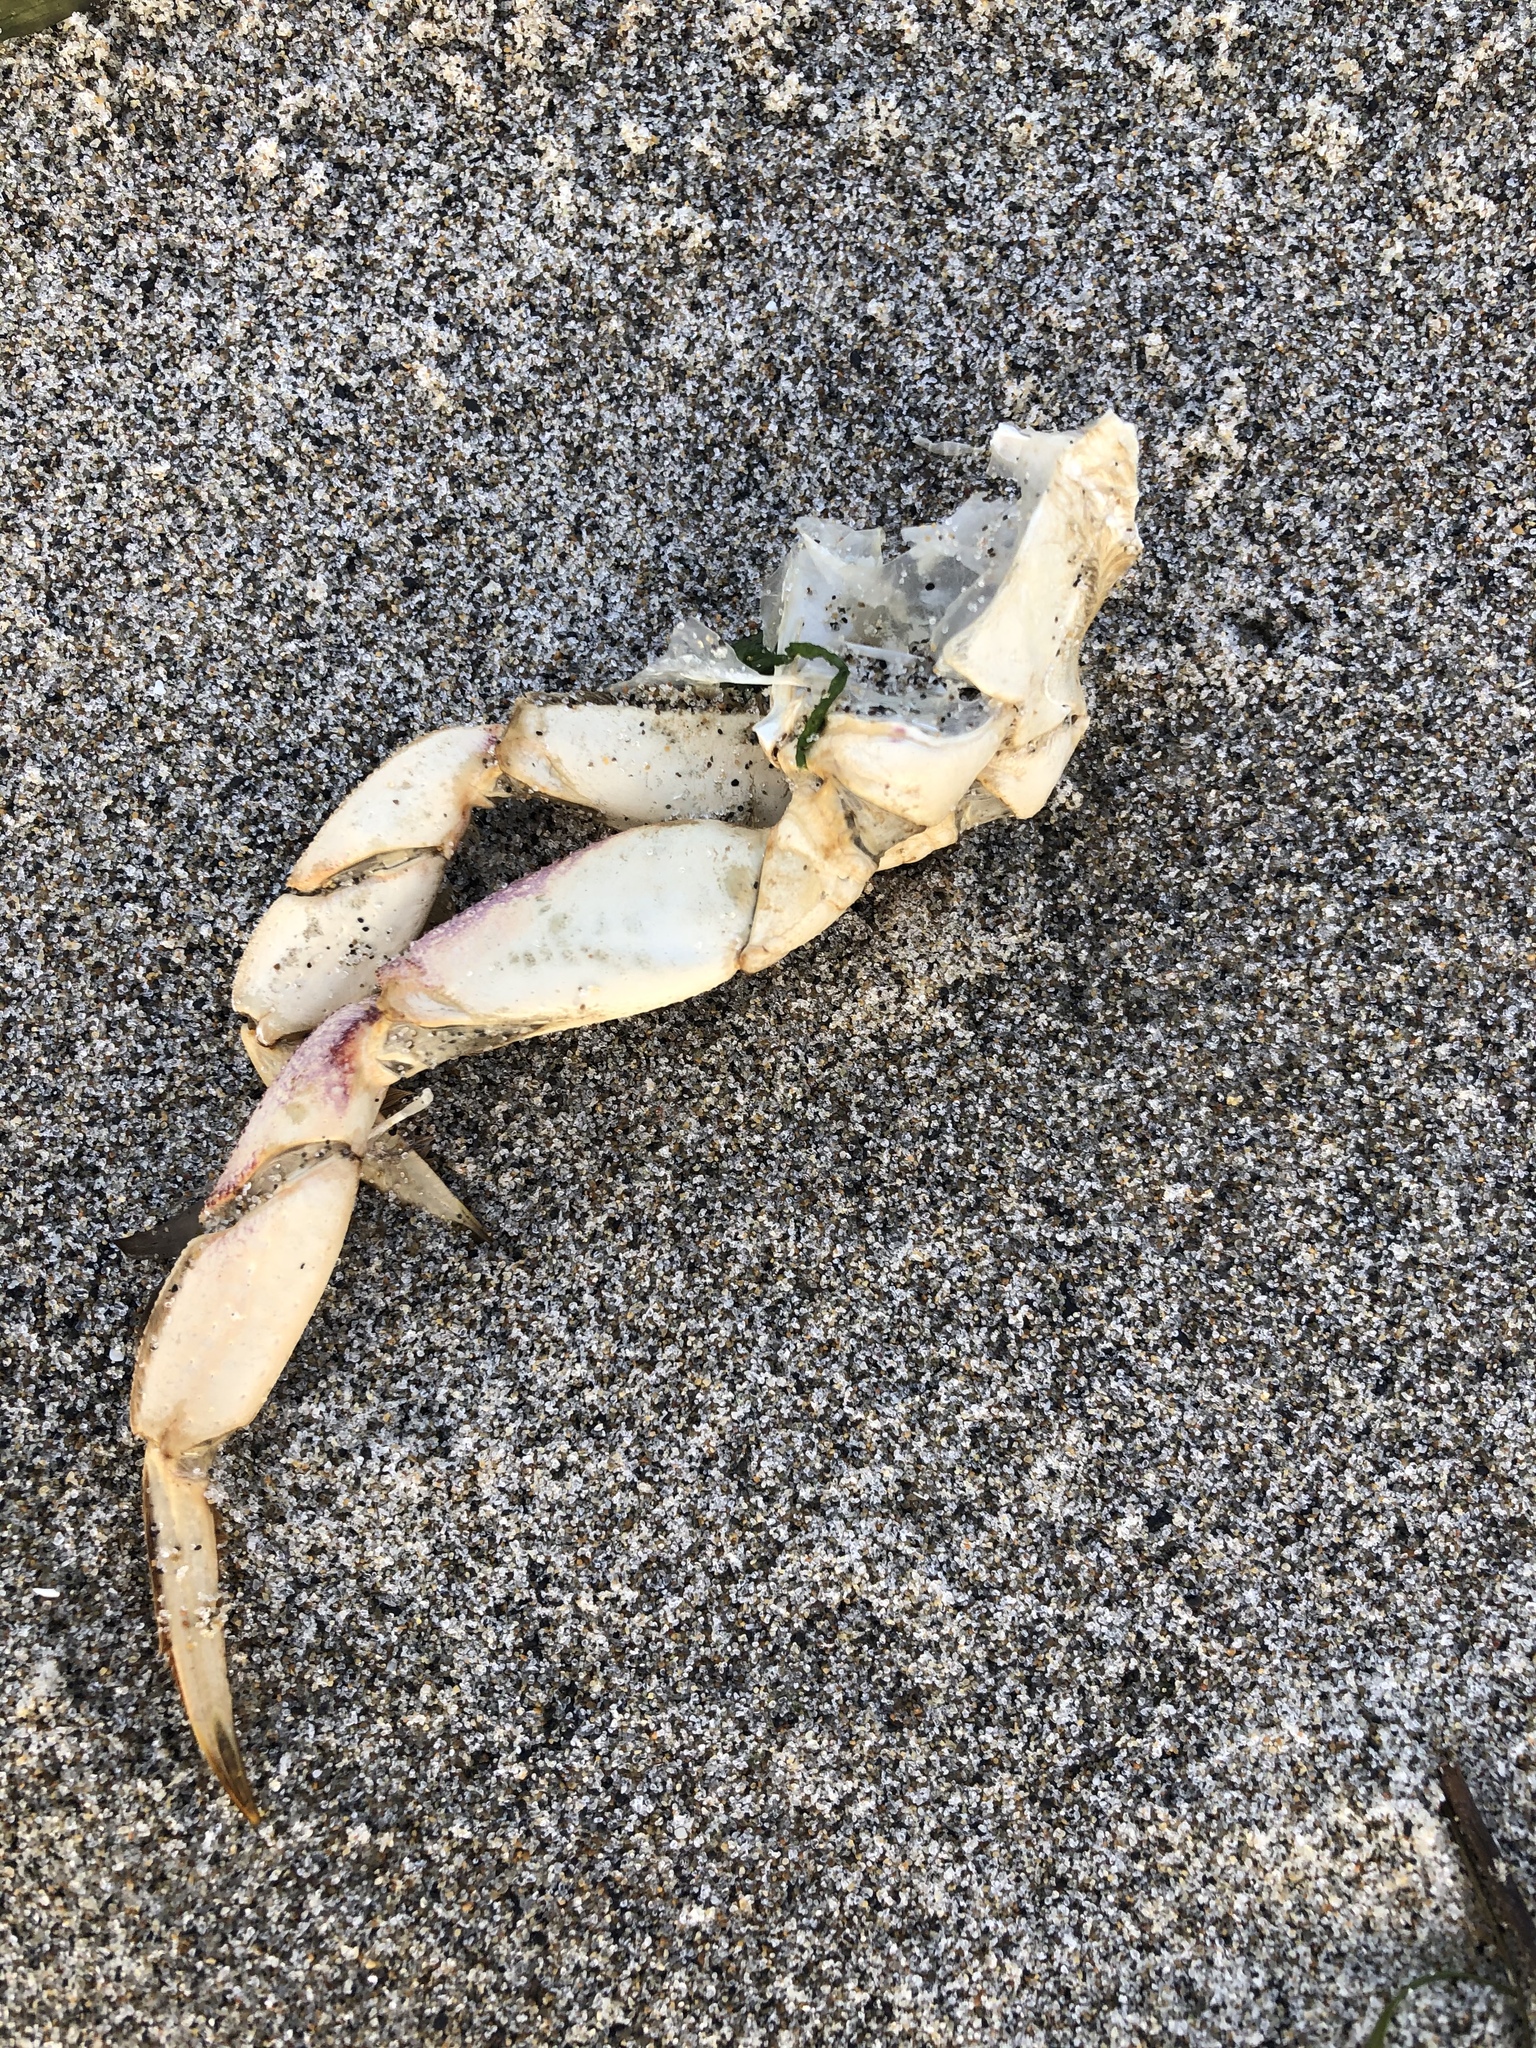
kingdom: Animalia
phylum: Arthropoda
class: Malacostraca
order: Decapoda
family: Cancridae
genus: Metacarcinus
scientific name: Metacarcinus magister
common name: Californian crab
